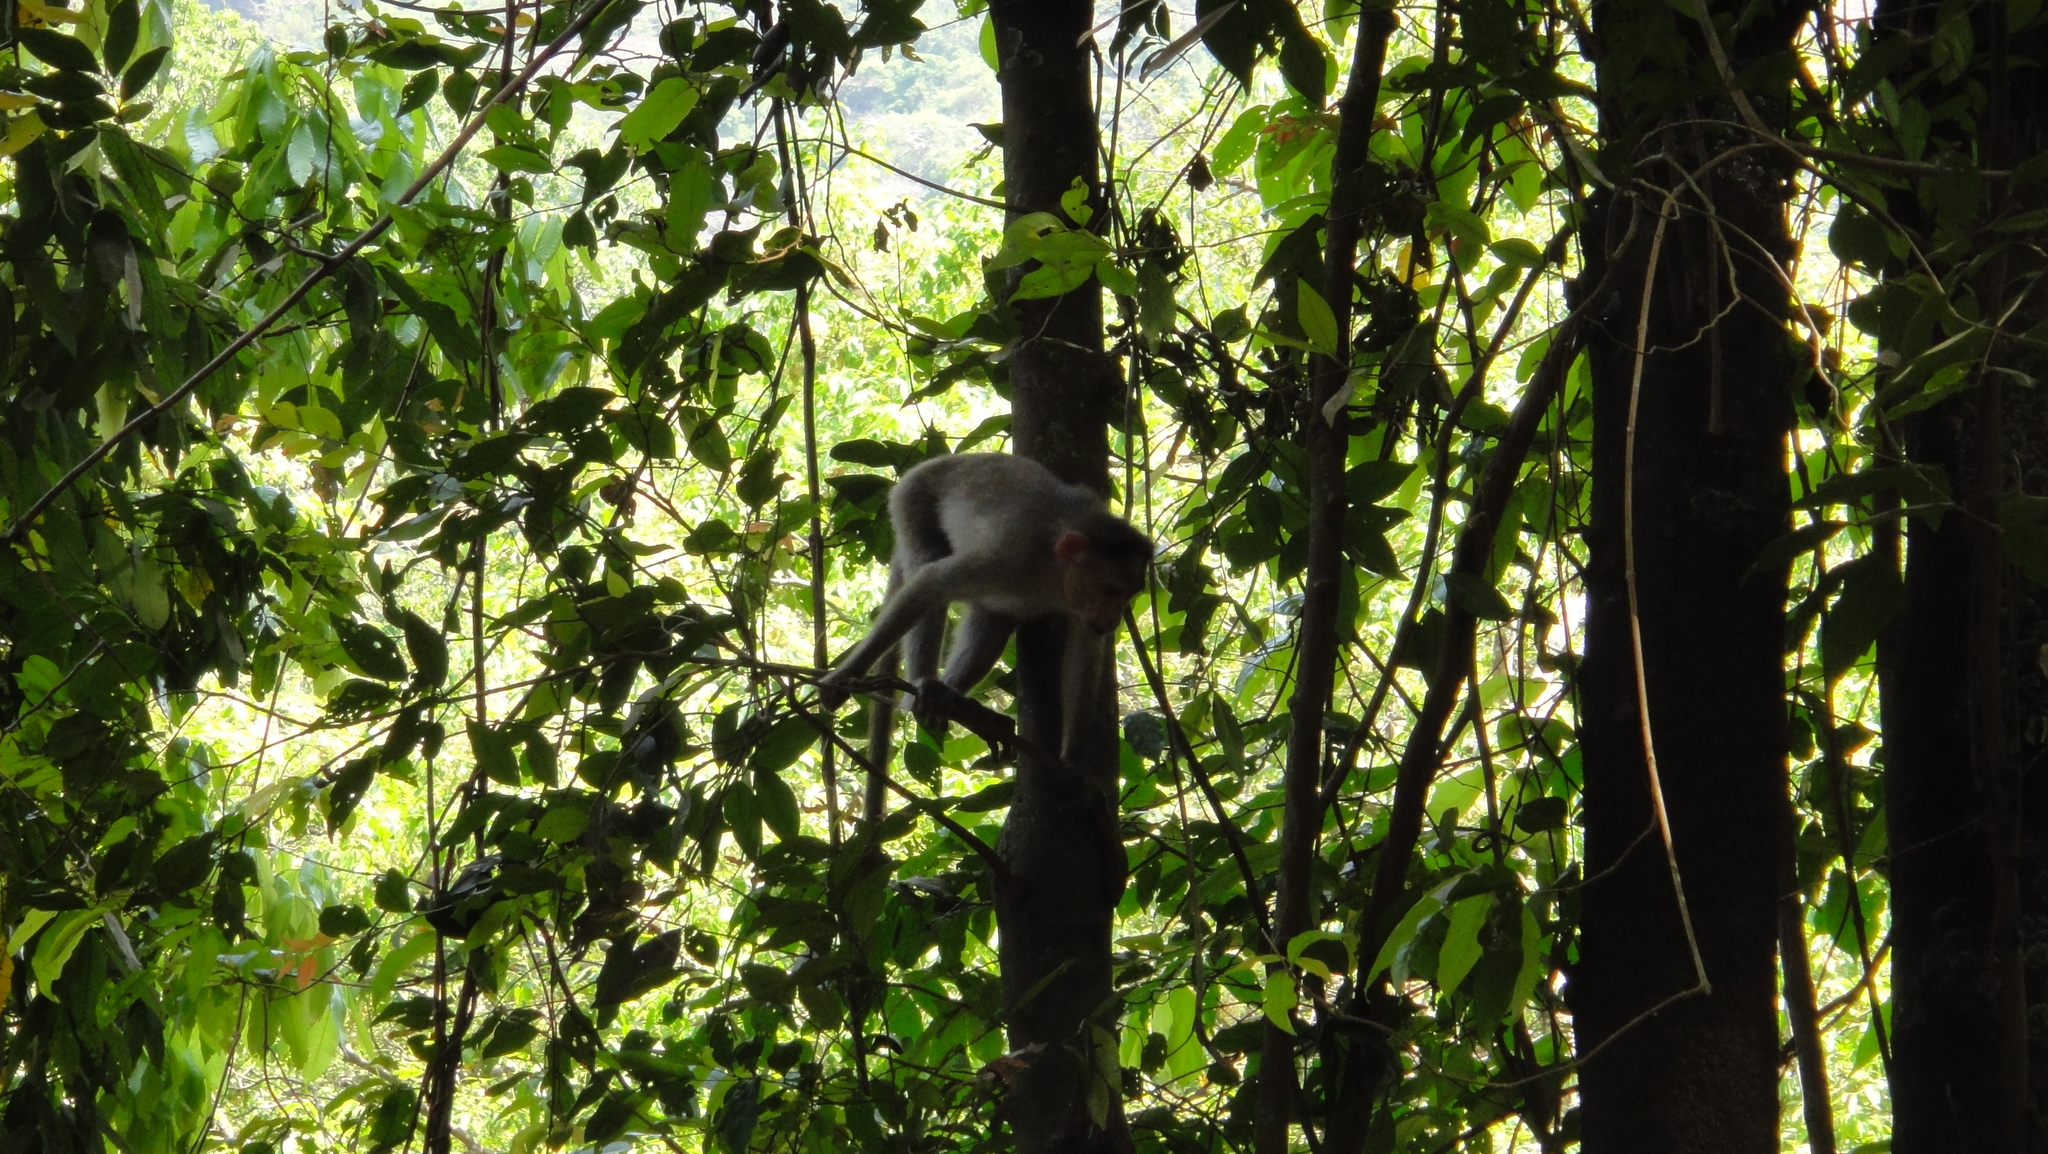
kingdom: Animalia
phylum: Chordata
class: Mammalia
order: Primates
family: Cercopithecidae
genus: Macaca
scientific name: Macaca radiata
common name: Bonnet macaque
